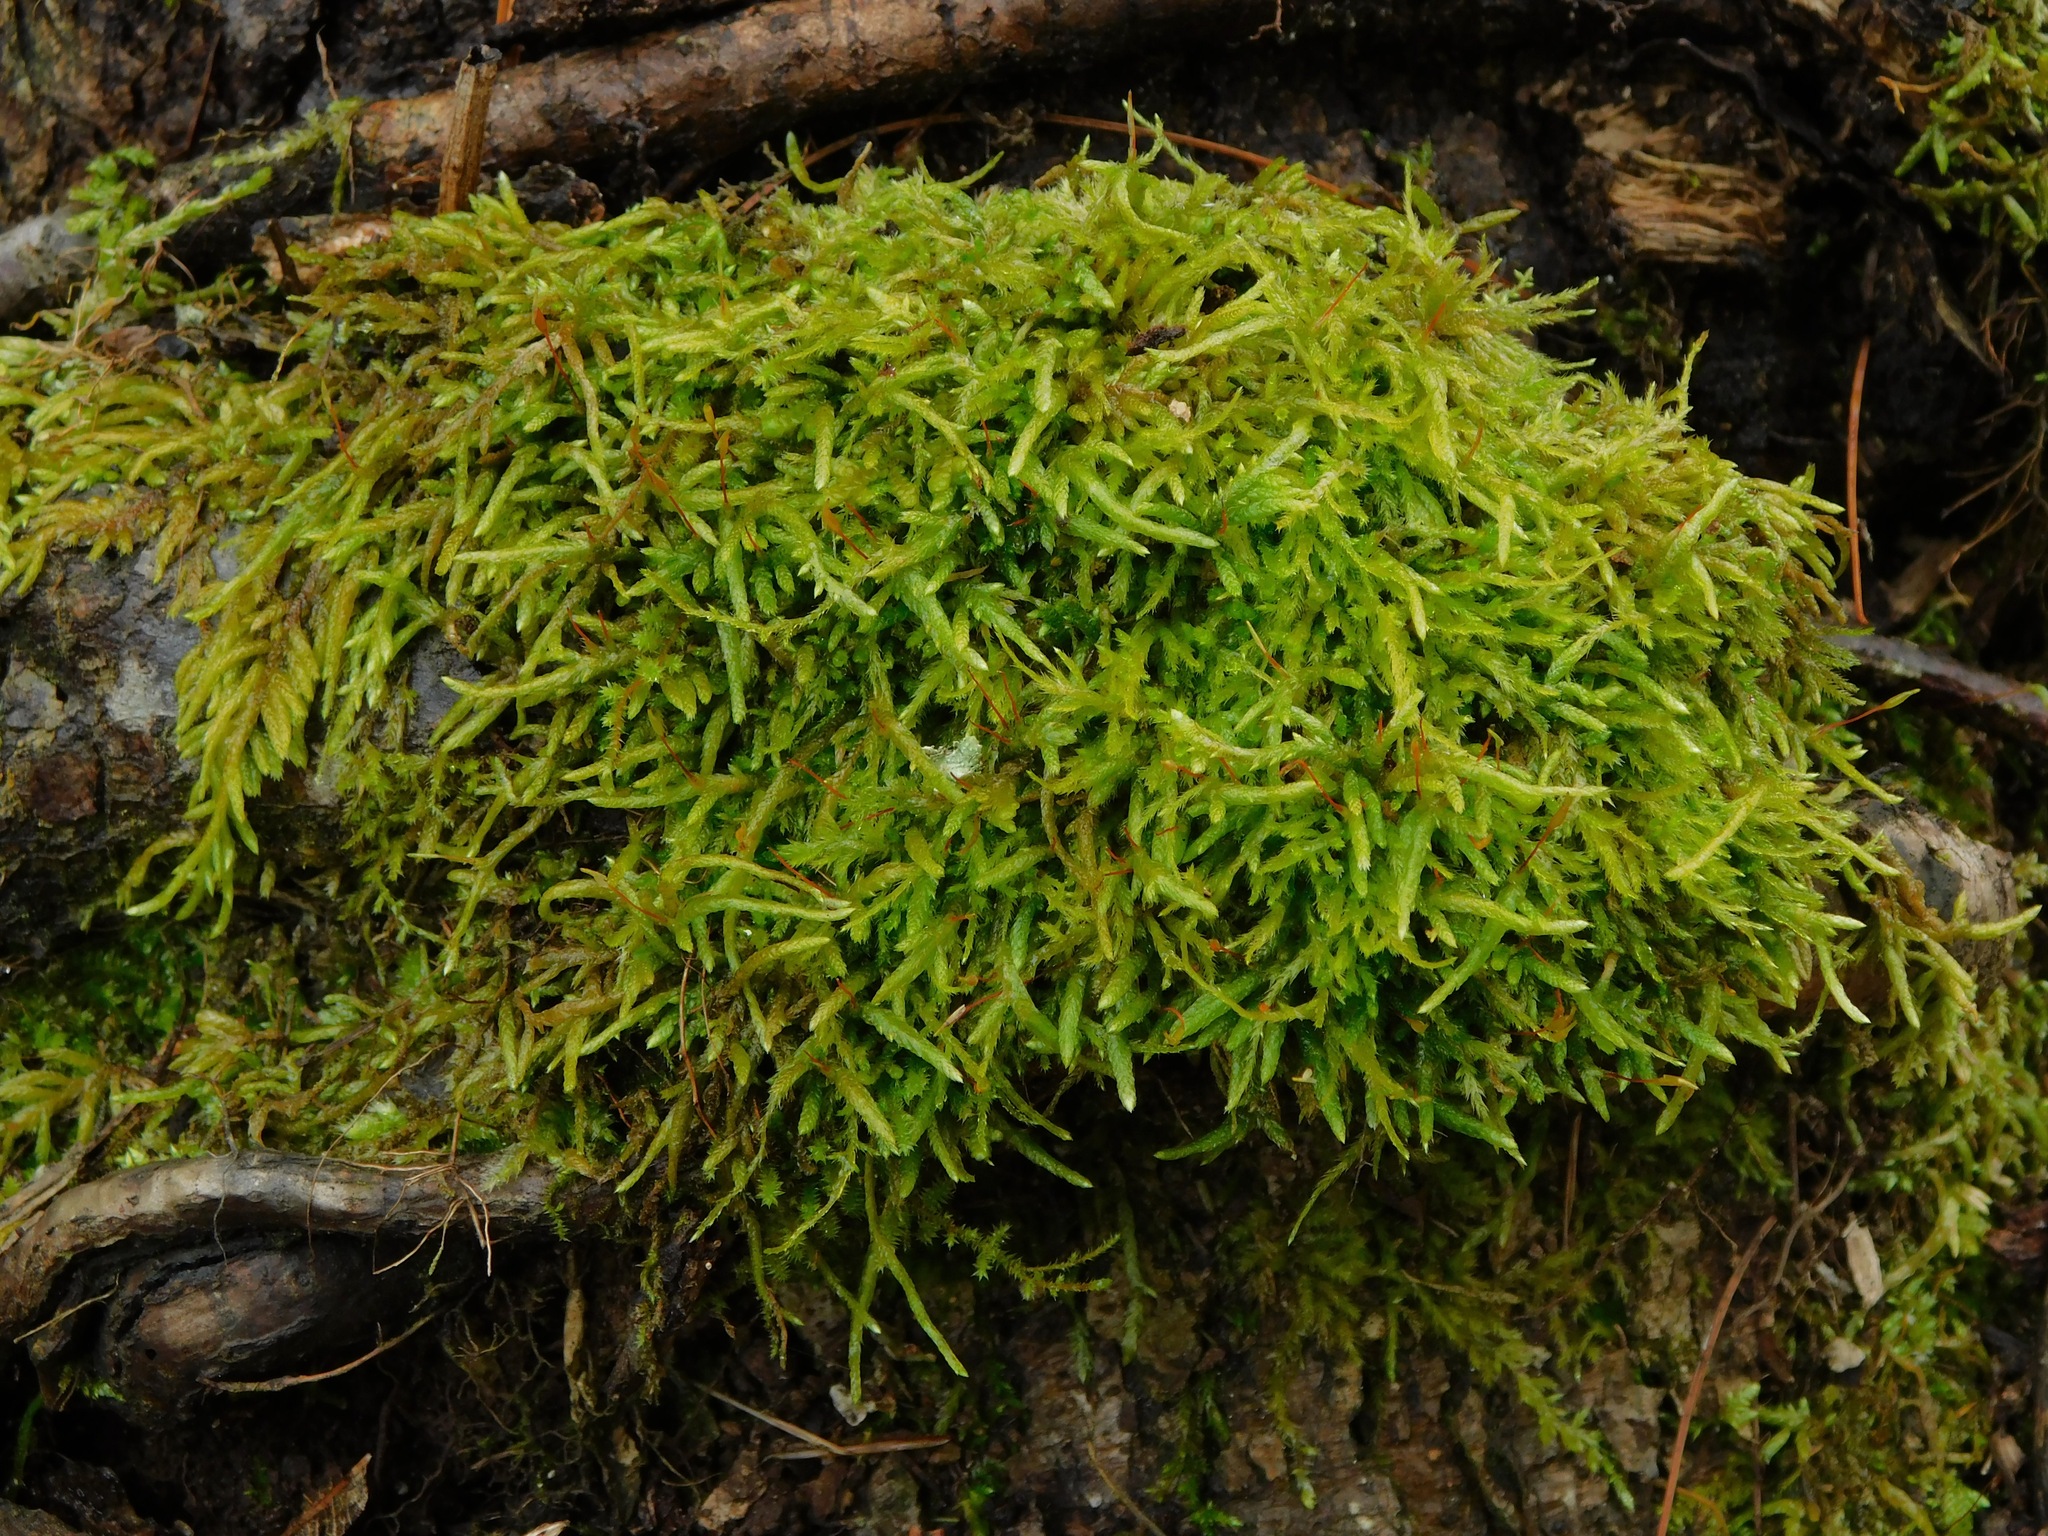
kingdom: Plantae
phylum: Bryophyta
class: Bryopsida
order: Hypnales
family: Entodontaceae
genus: Entodon
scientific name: Entodon seductrix
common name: Round-stemmed entodon moss
